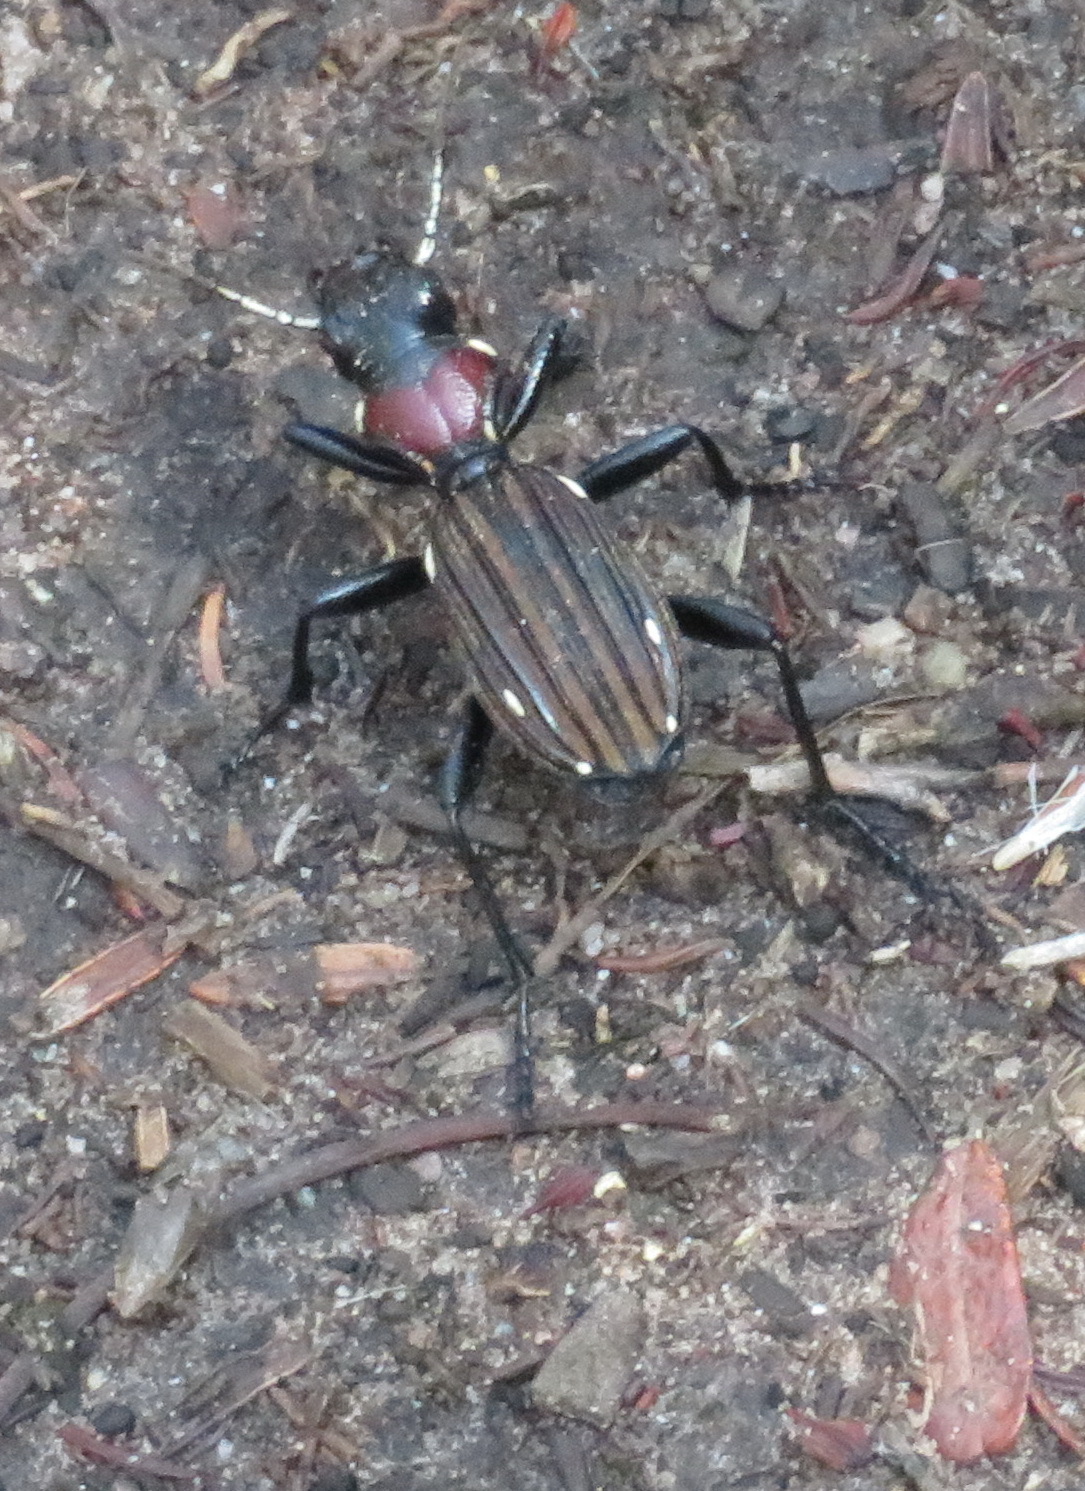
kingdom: Animalia
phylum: Arthropoda
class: Insecta
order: Coleoptera
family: Carabidae
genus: Anthia
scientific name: Anthia decemguttata
